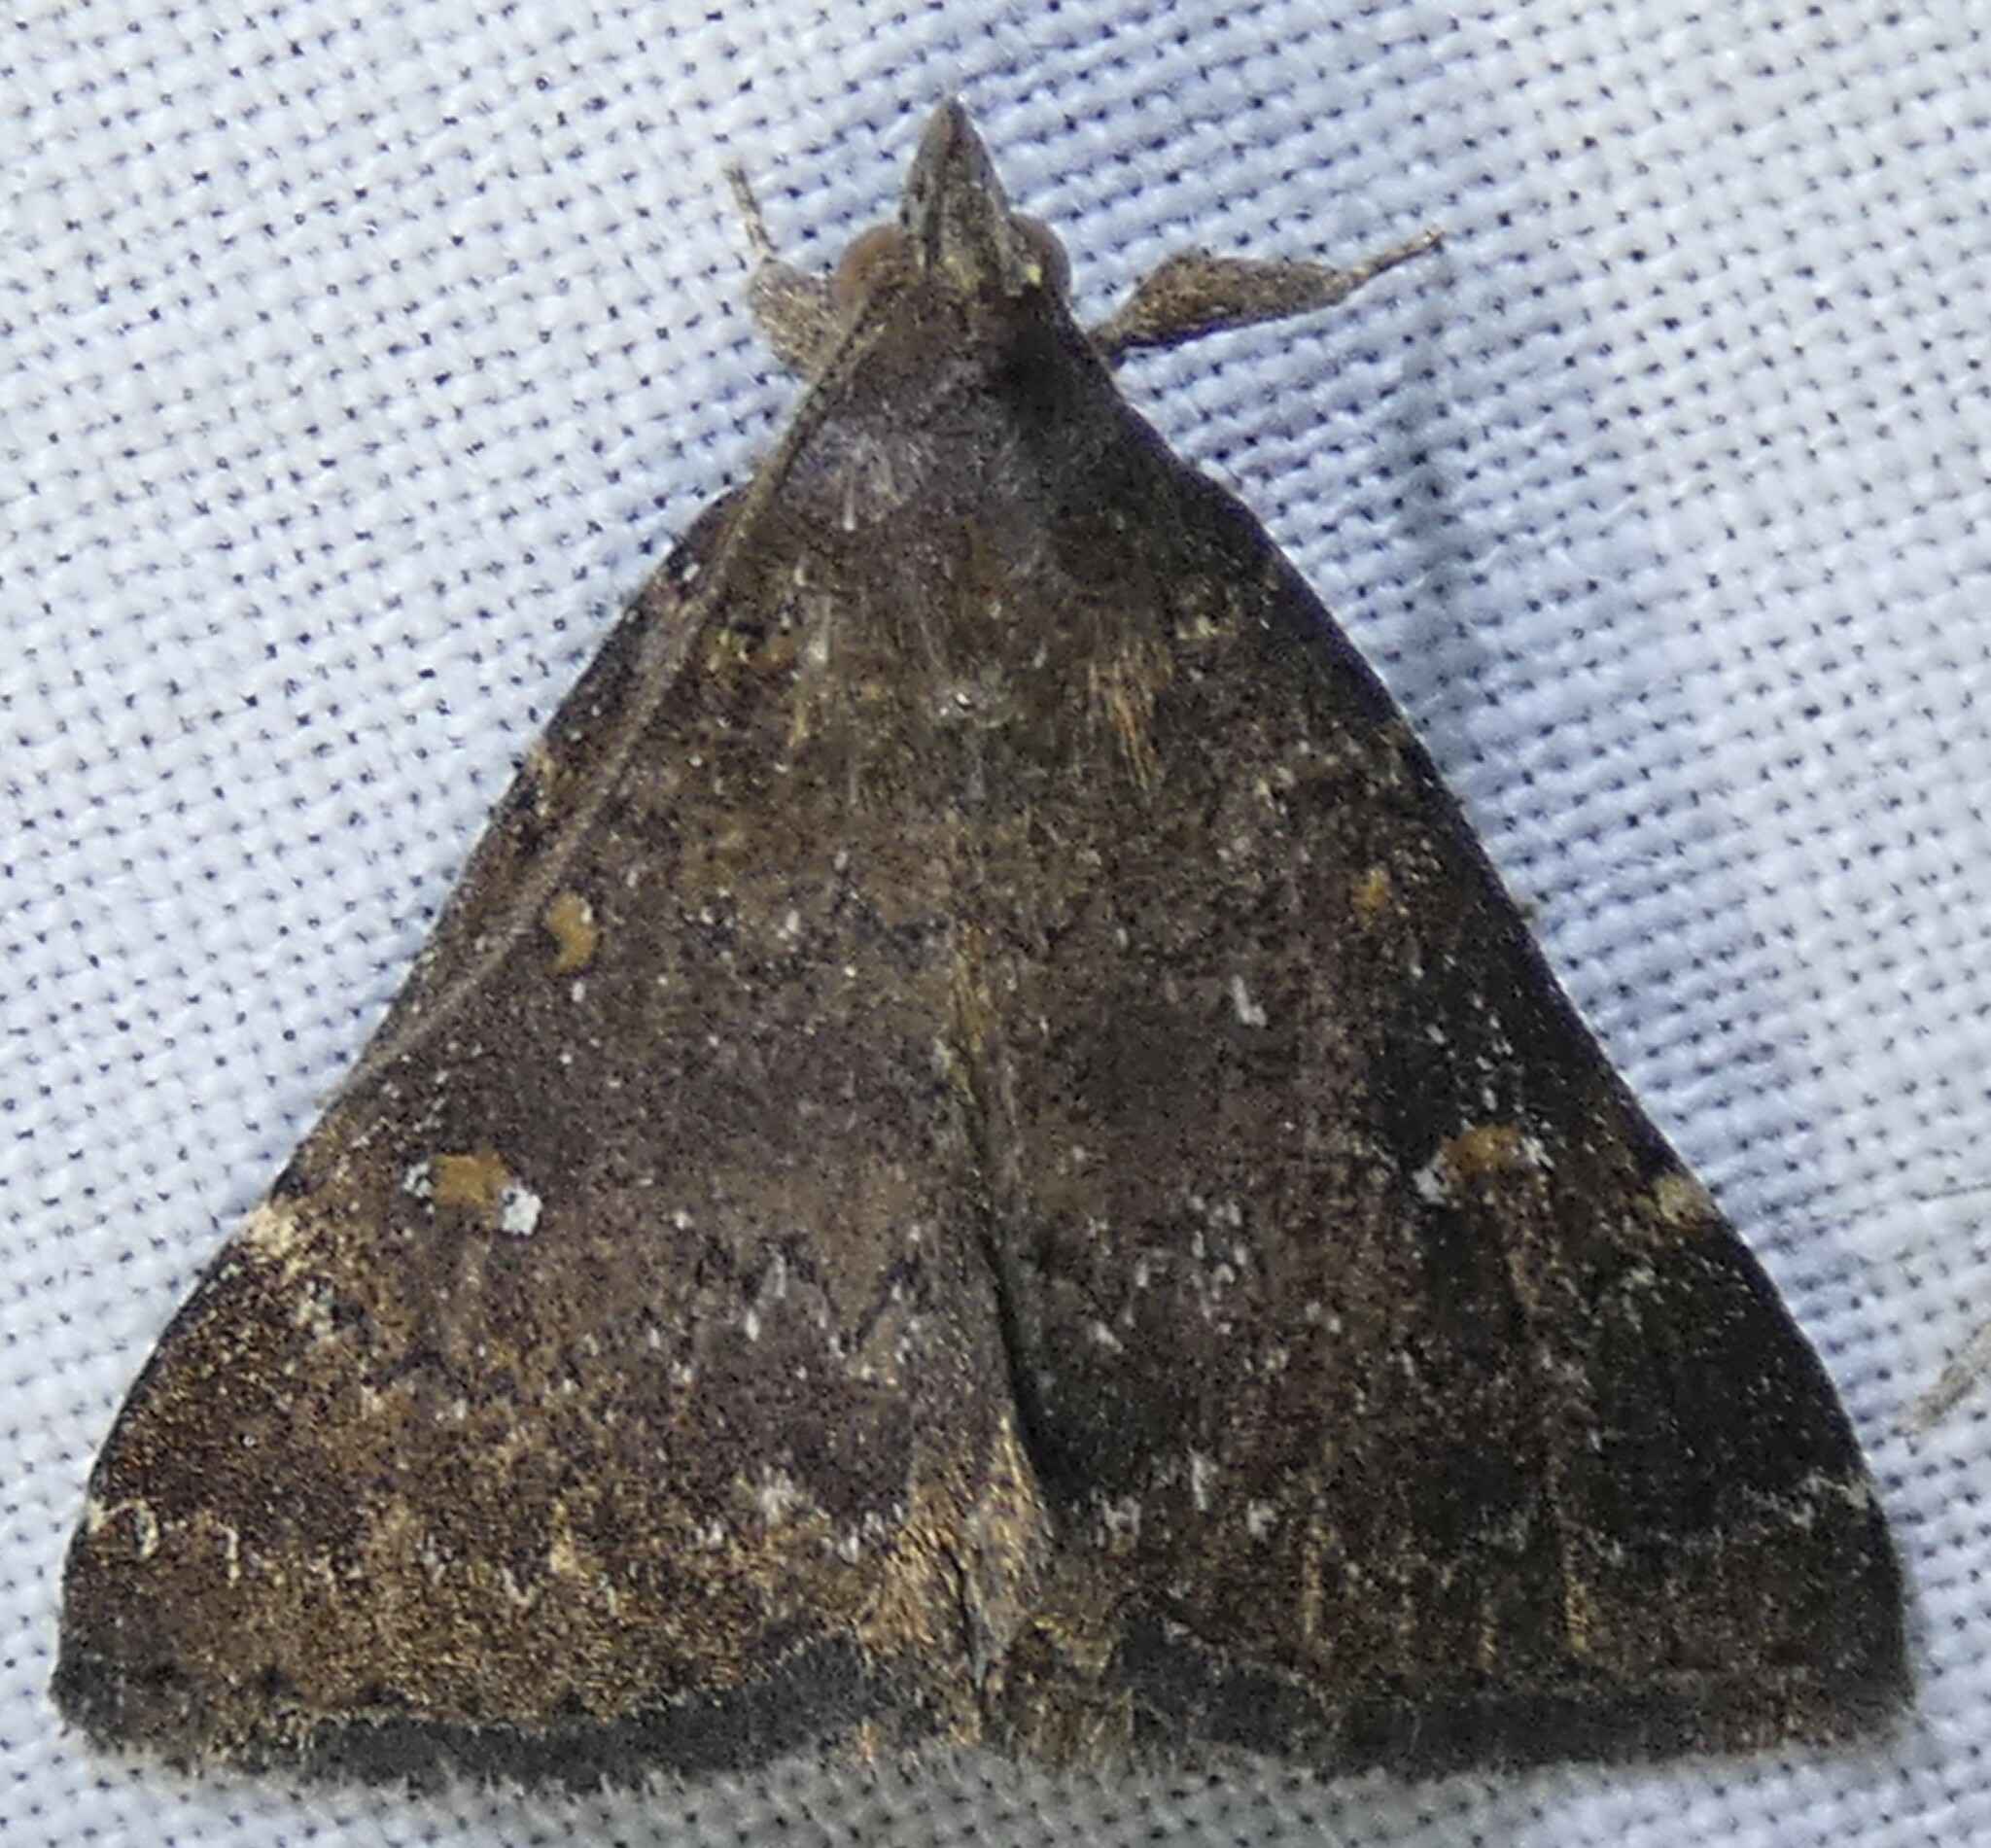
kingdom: Animalia
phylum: Arthropoda
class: Insecta
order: Lepidoptera
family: Erebidae
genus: Hypenula
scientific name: Hypenula cacuminalis
